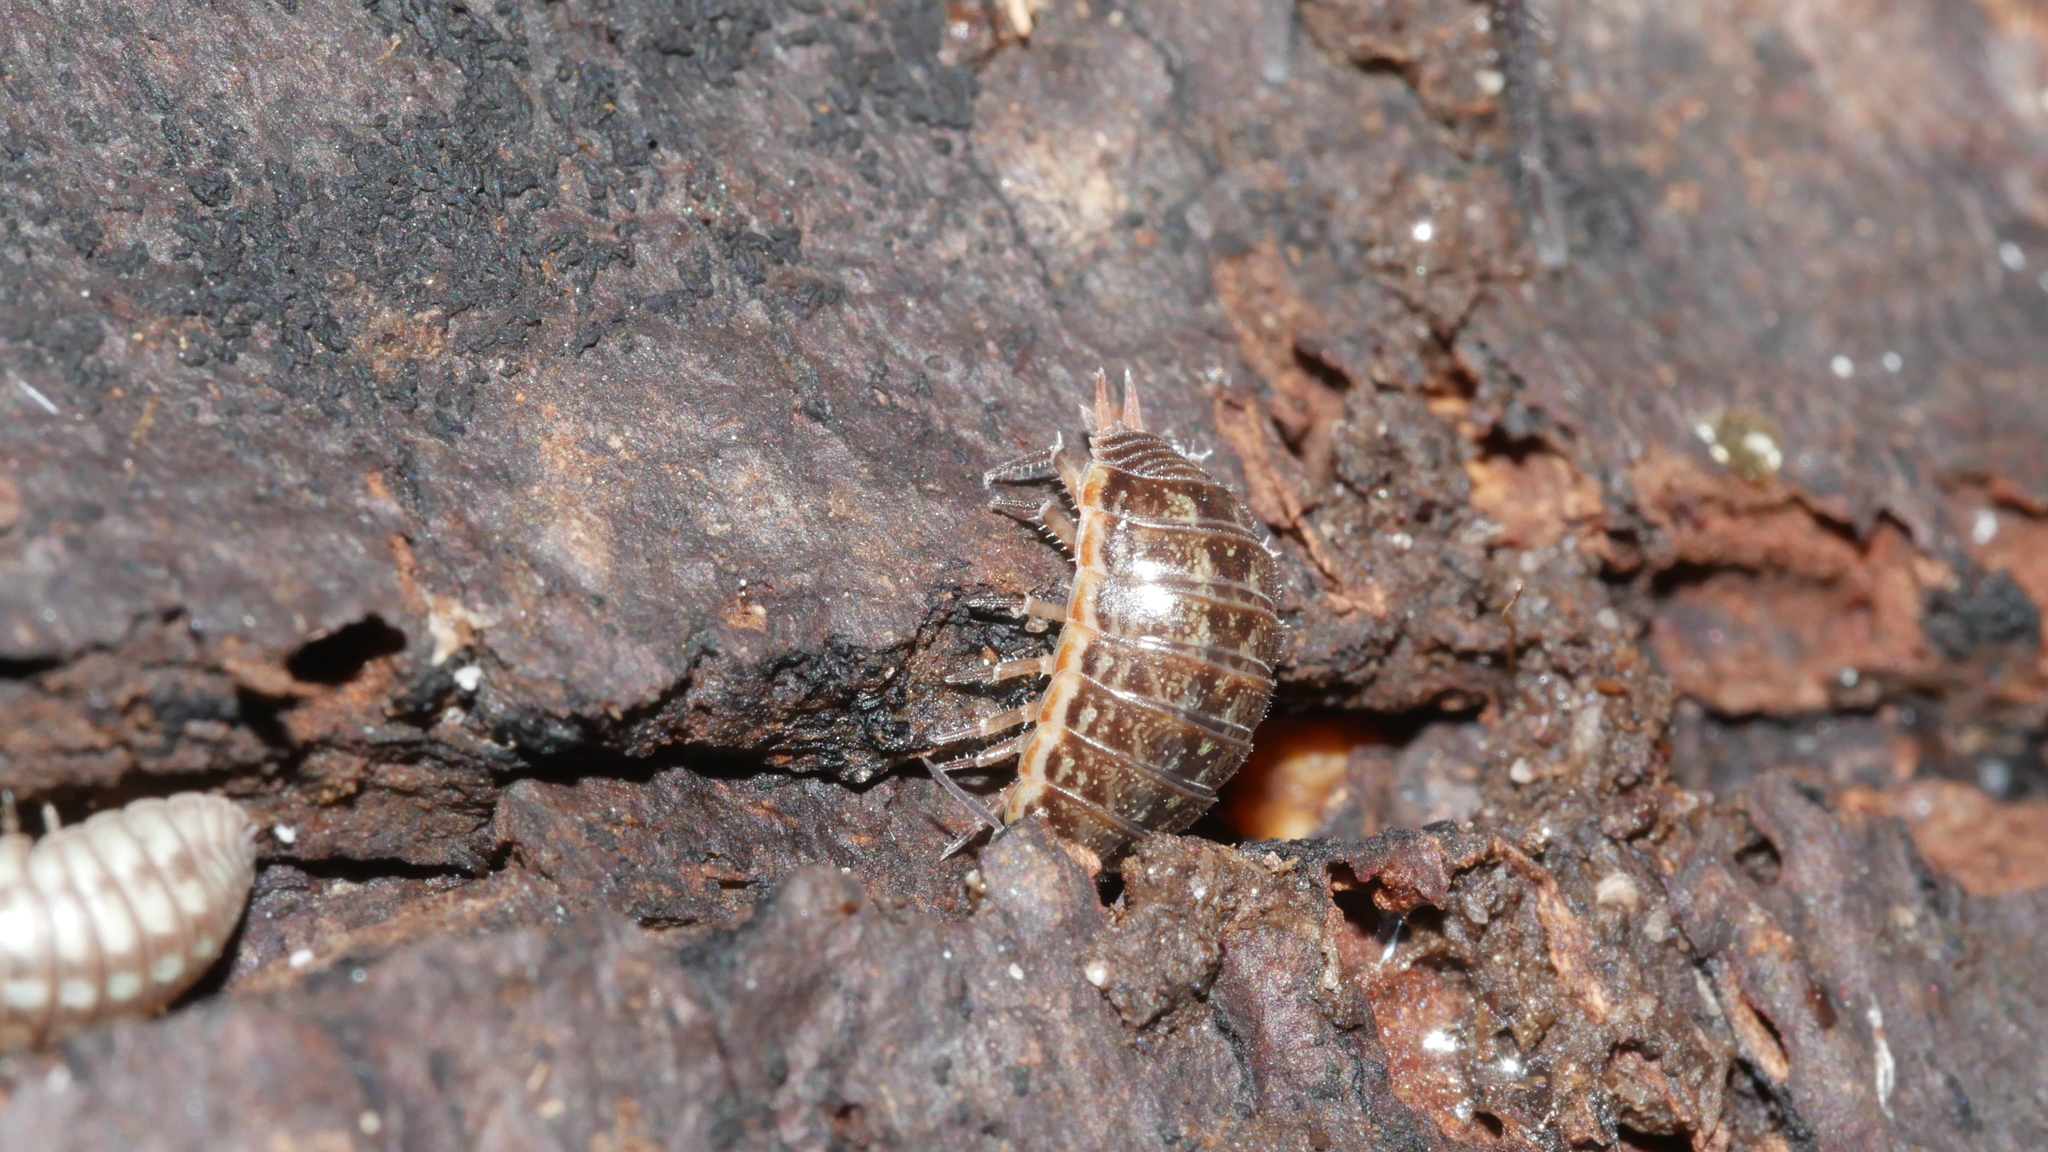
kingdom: Animalia
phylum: Arthropoda
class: Malacostraca
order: Isopoda
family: Philosciidae
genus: Philoscia
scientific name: Philoscia muscorum
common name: Common striped woodlouse
